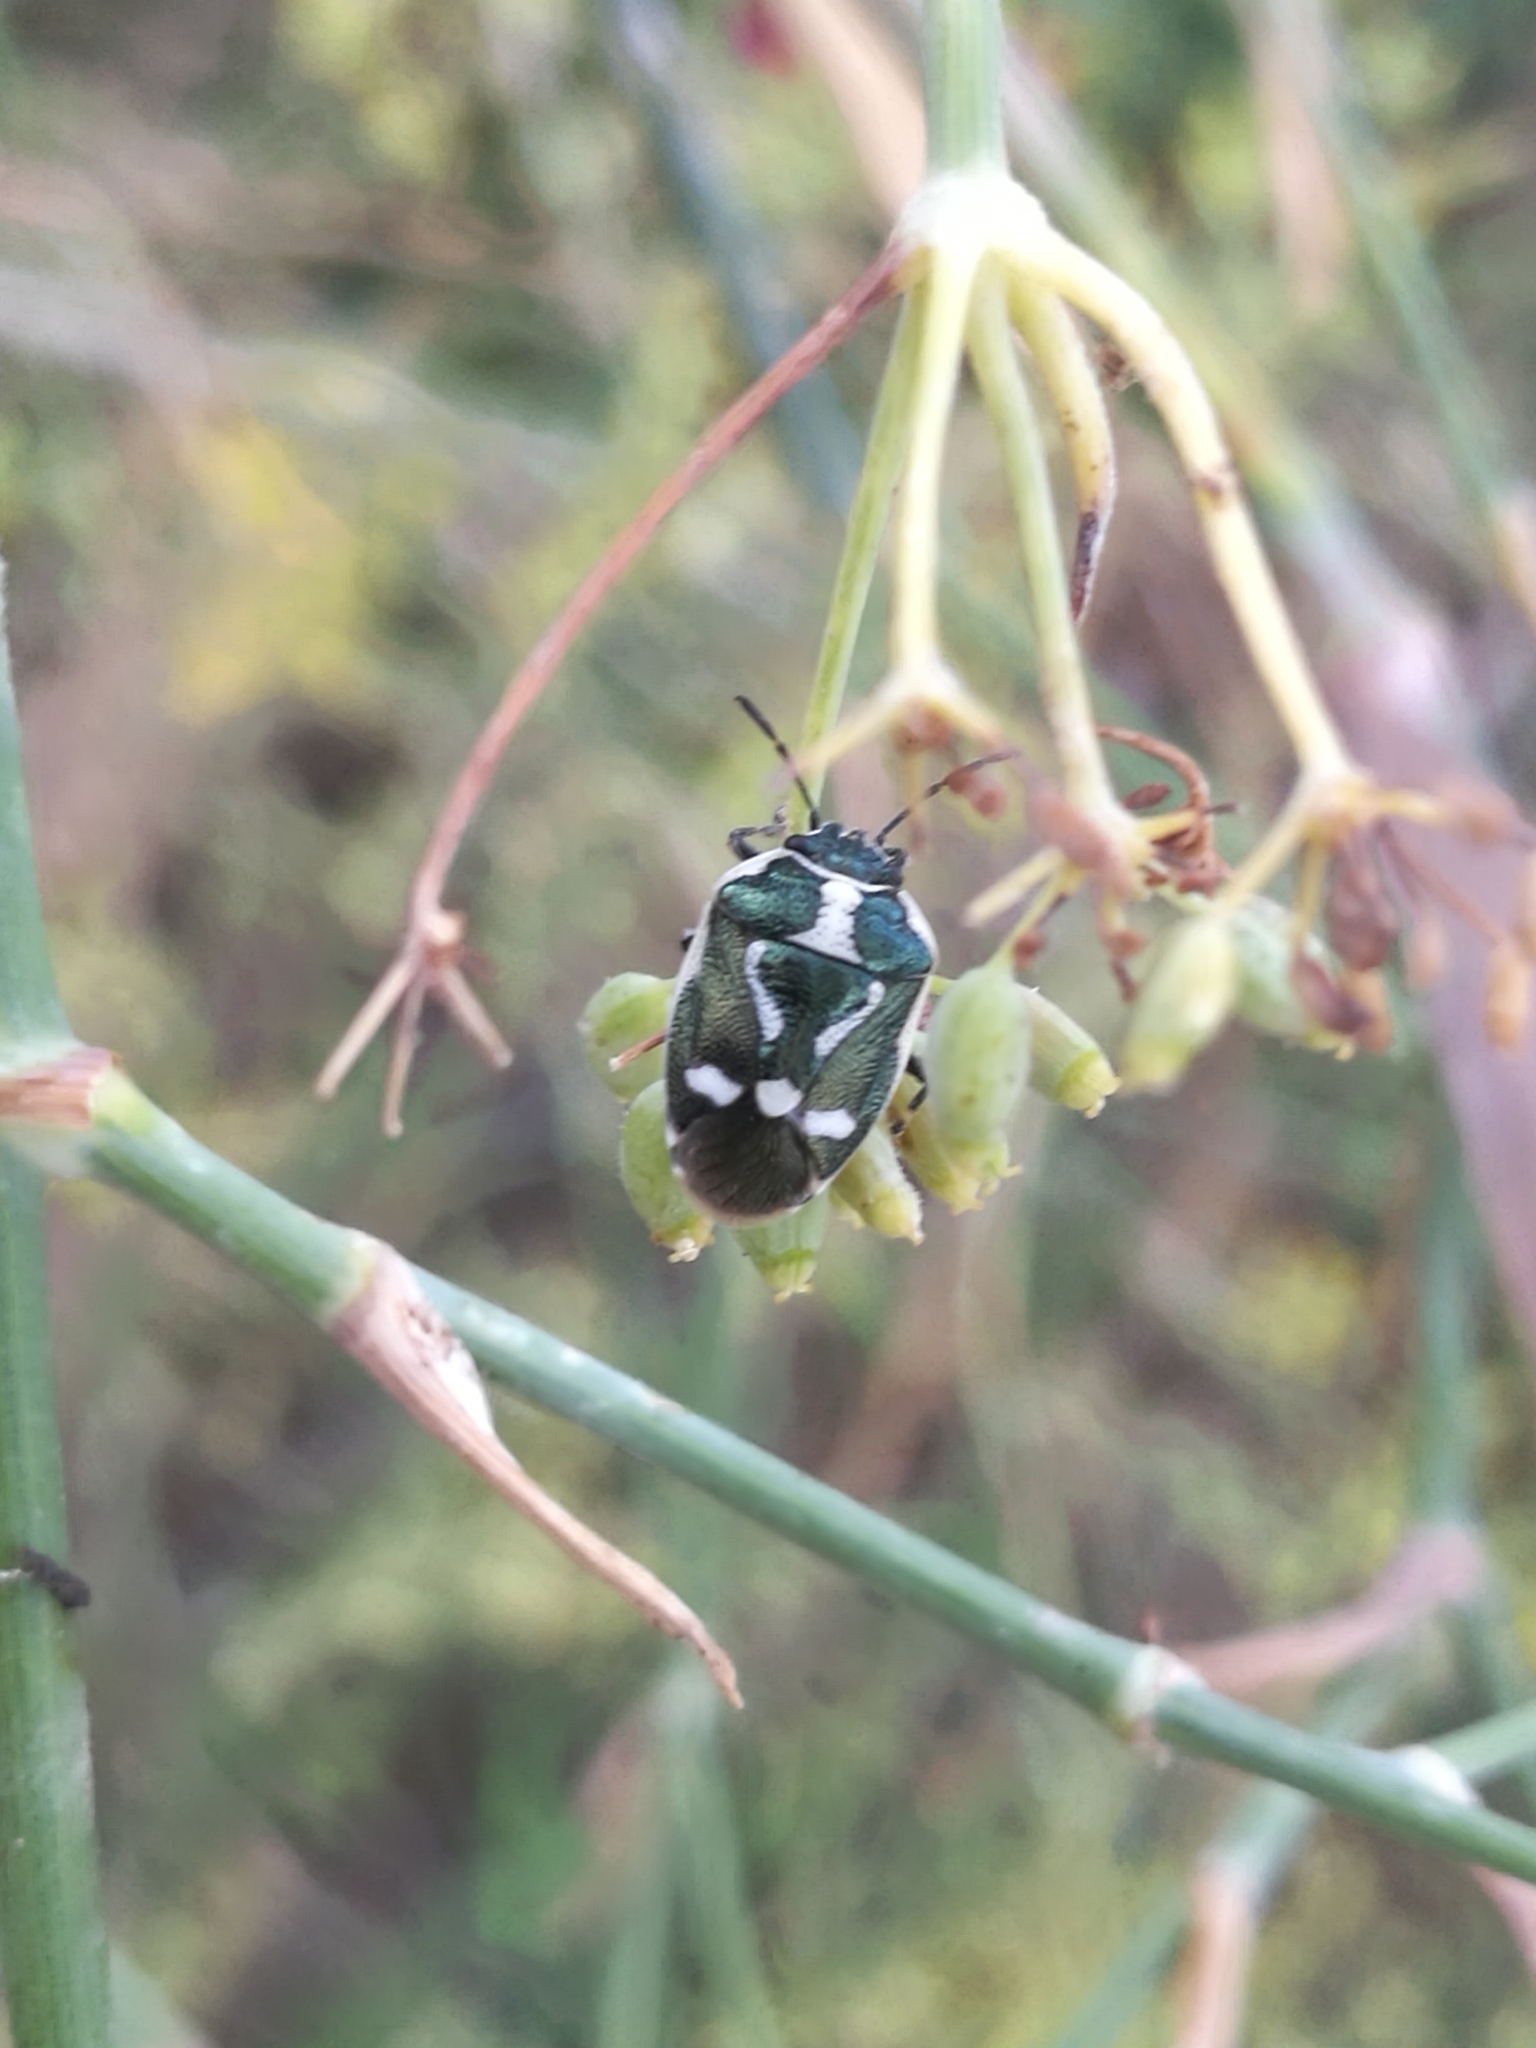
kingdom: Animalia
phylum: Arthropoda
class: Insecta
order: Hemiptera
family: Pentatomidae
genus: Eurydema
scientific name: Eurydema oleracea
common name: Cabbage bug
